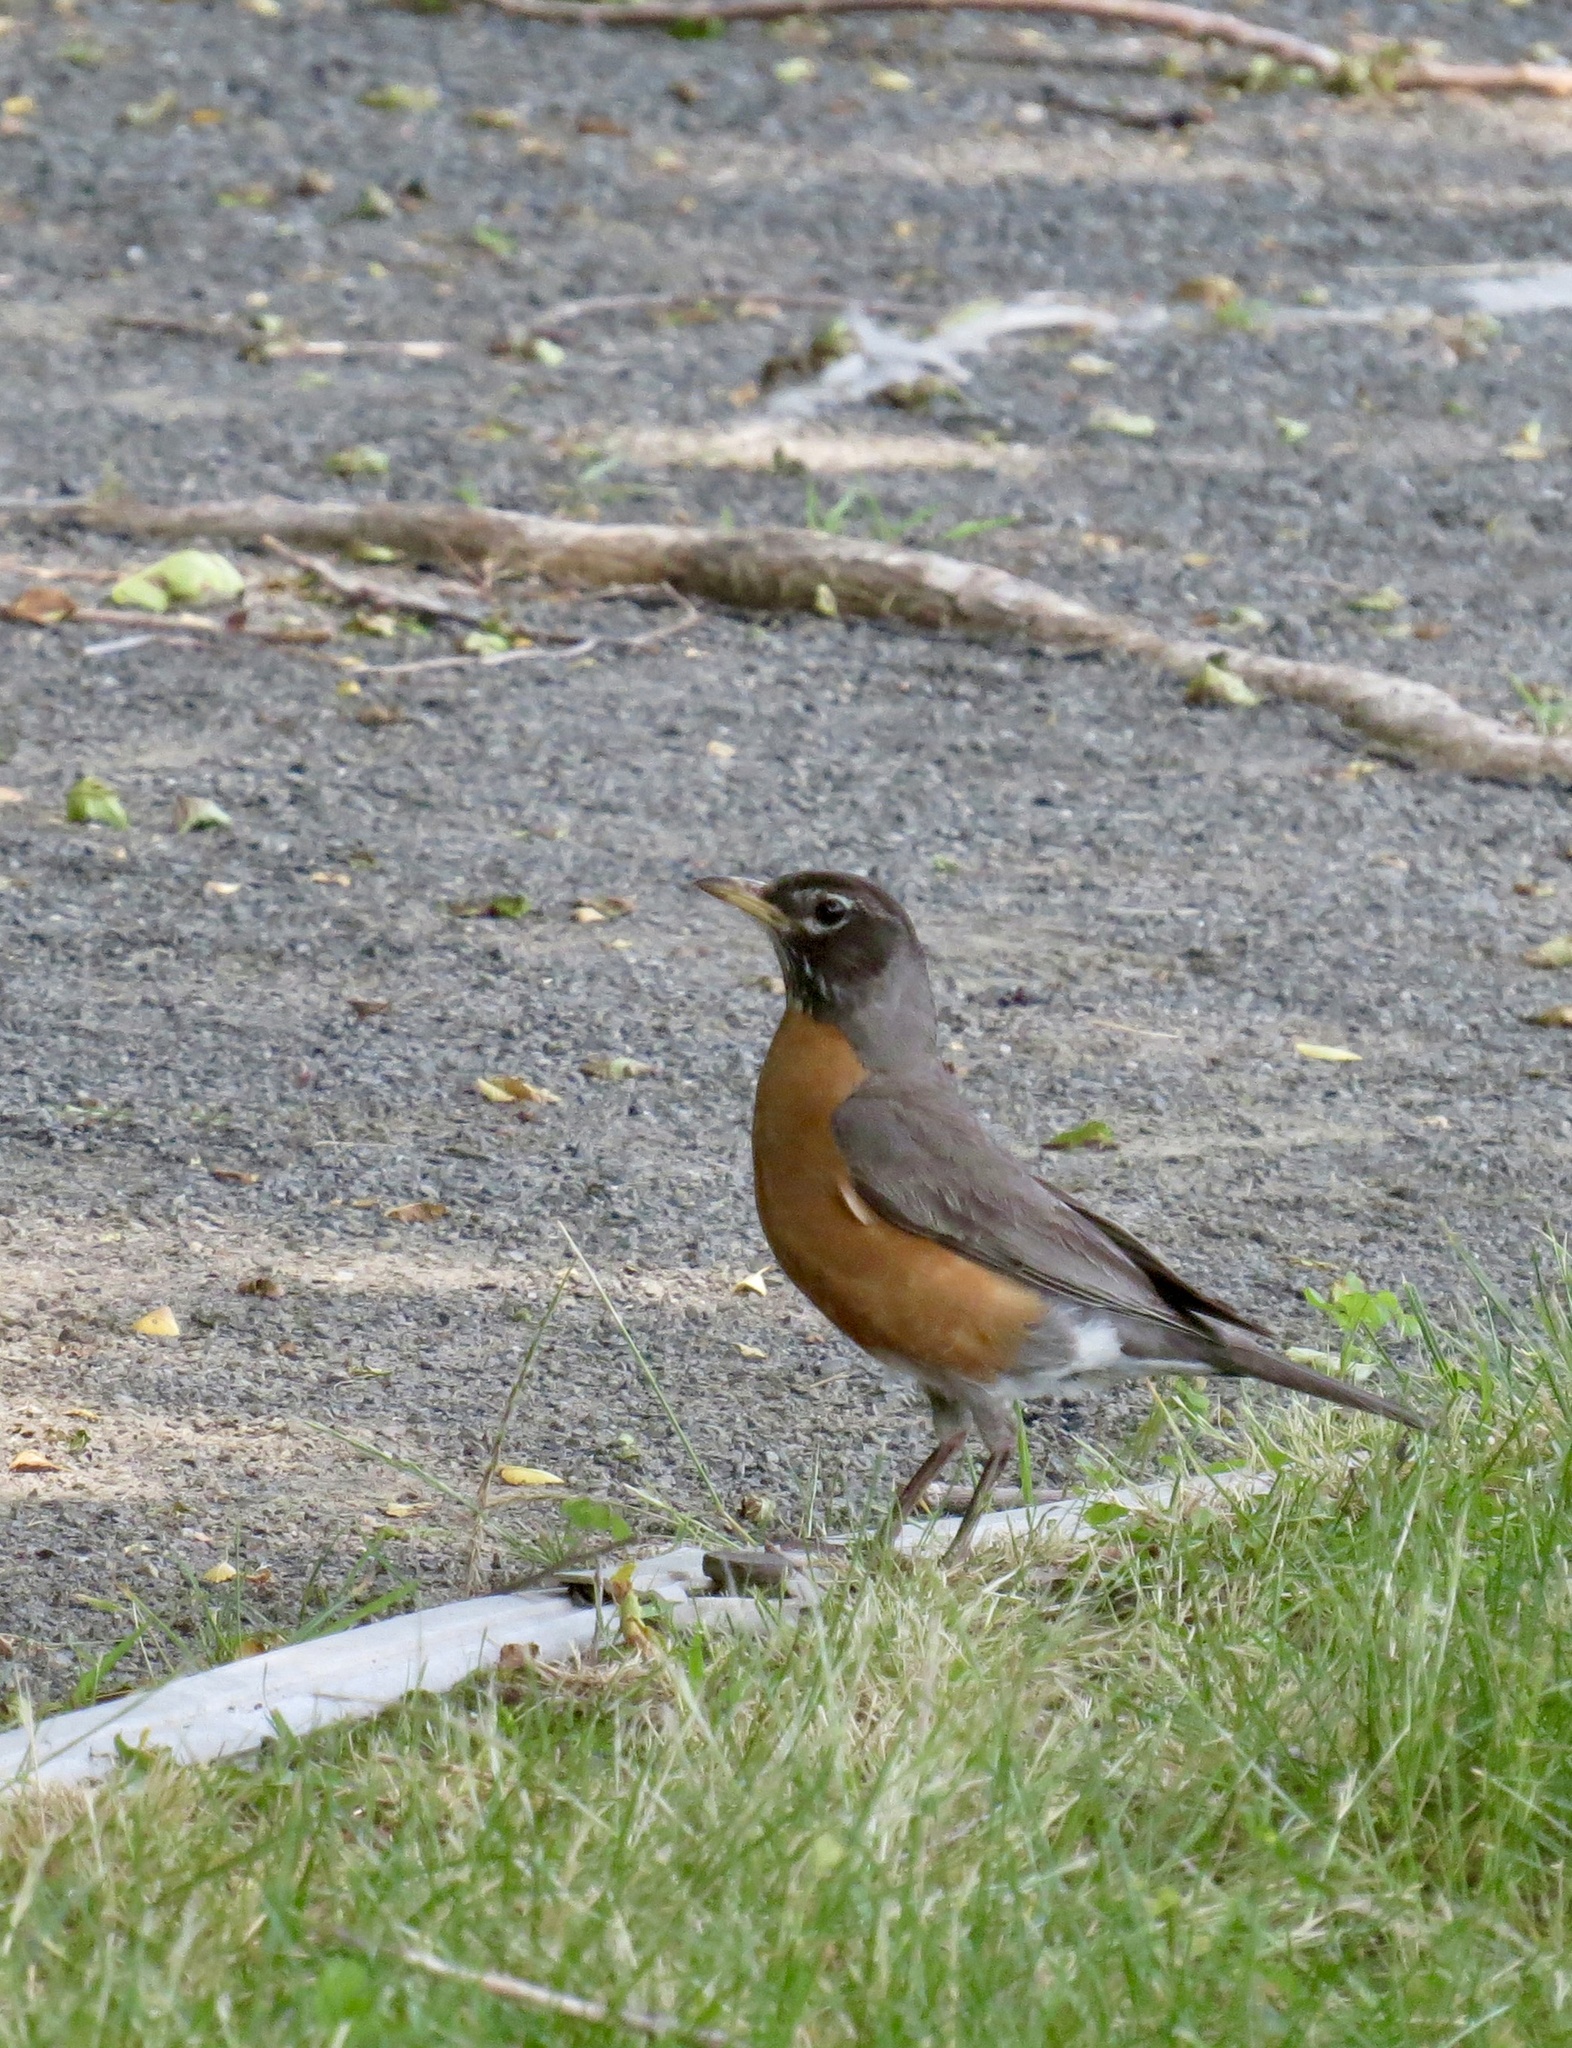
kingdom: Animalia
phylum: Chordata
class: Aves
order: Passeriformes
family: Turdidae
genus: Turdus
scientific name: Turdus migratorius
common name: American robin
